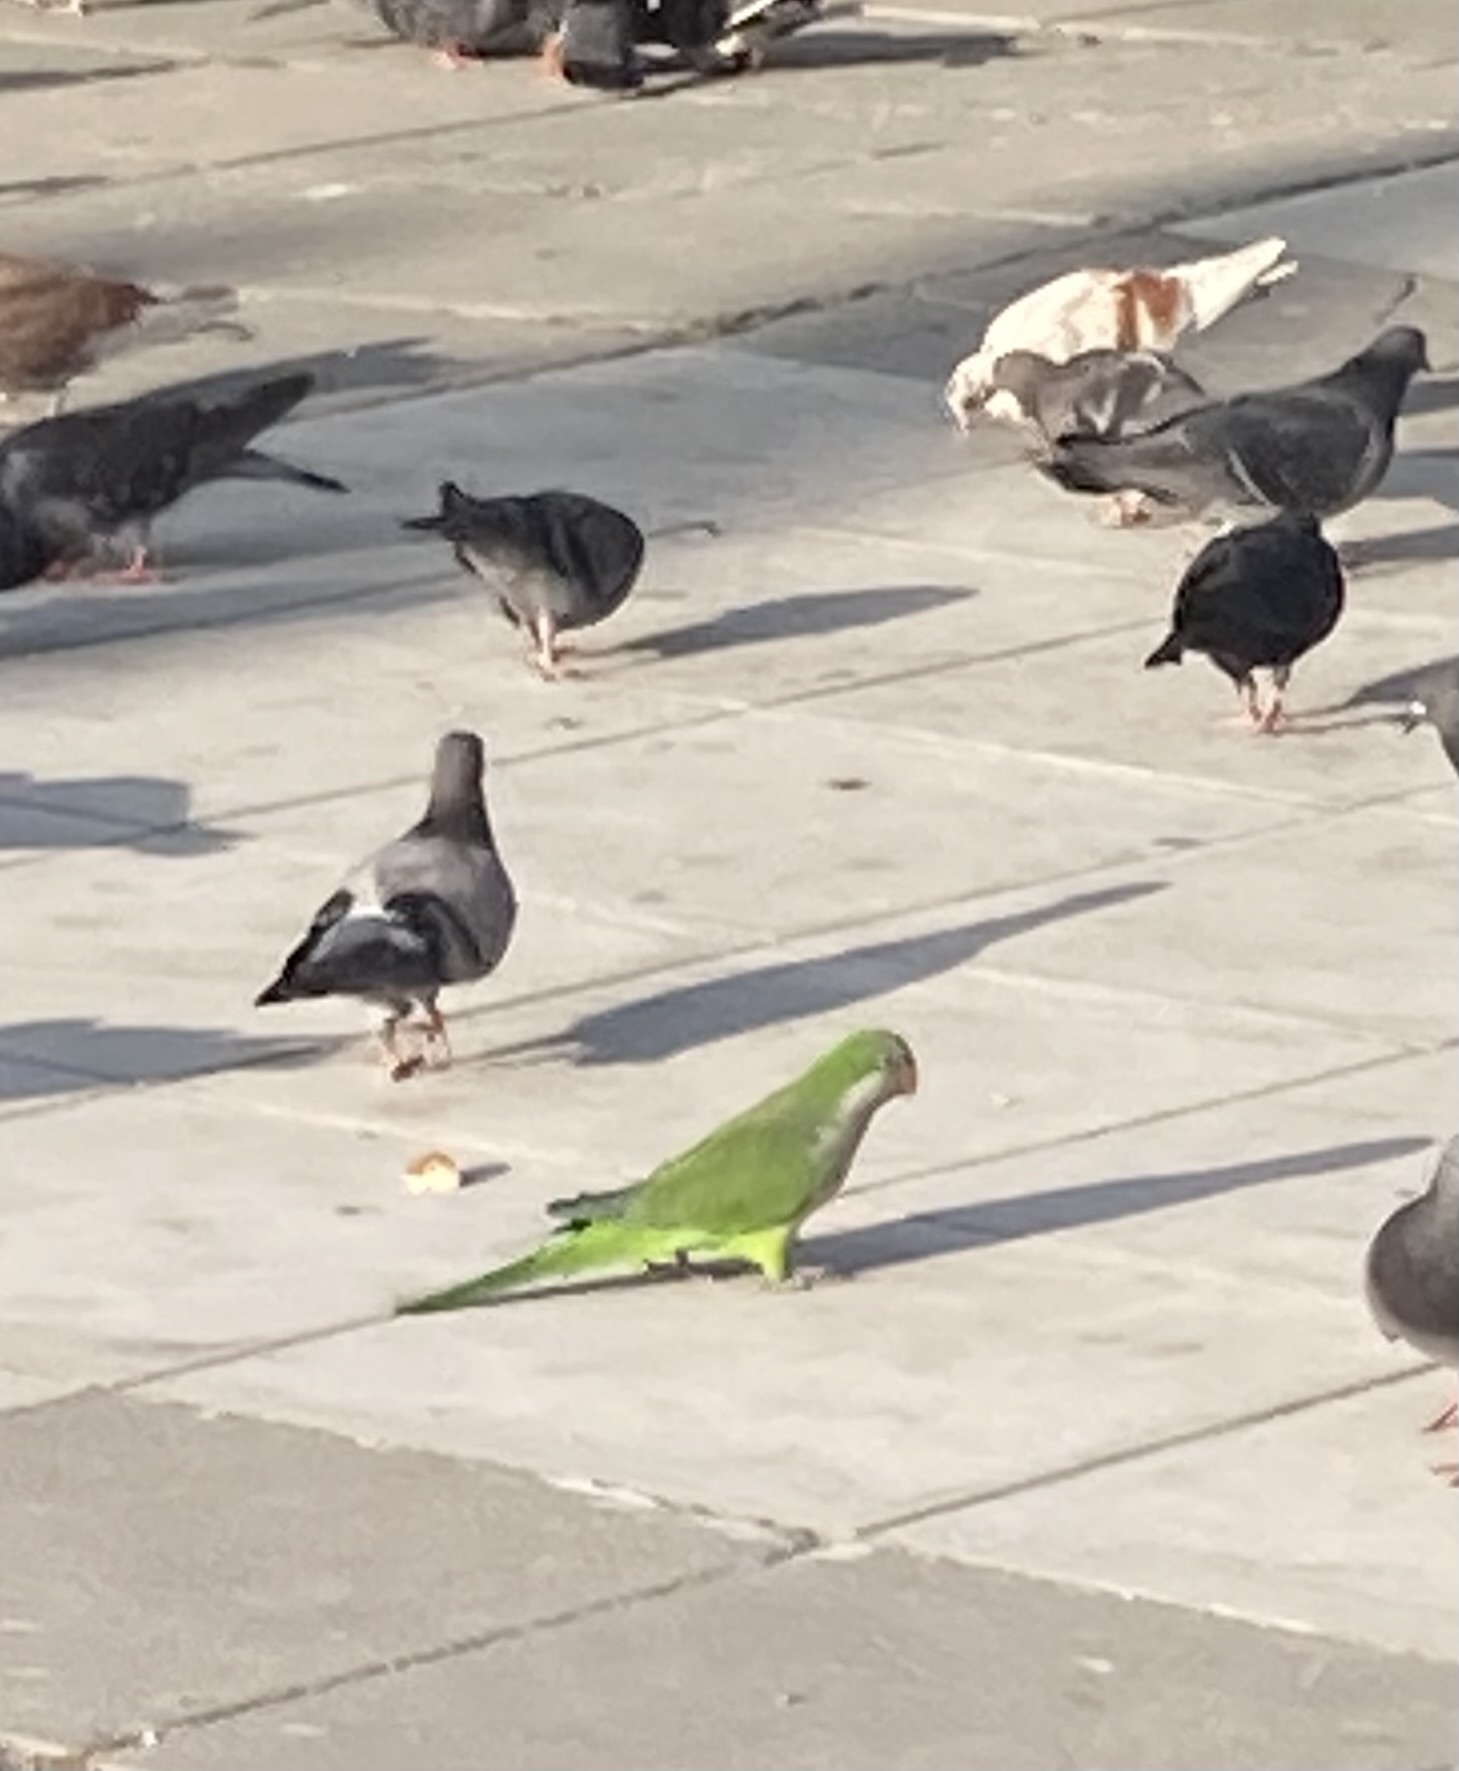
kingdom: Animalia
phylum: Chordata
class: Aves
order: Psittaciformes
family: Psittacidae
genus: Myiopsitta
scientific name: Myiopsitta monachus
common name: Monk parakeet
